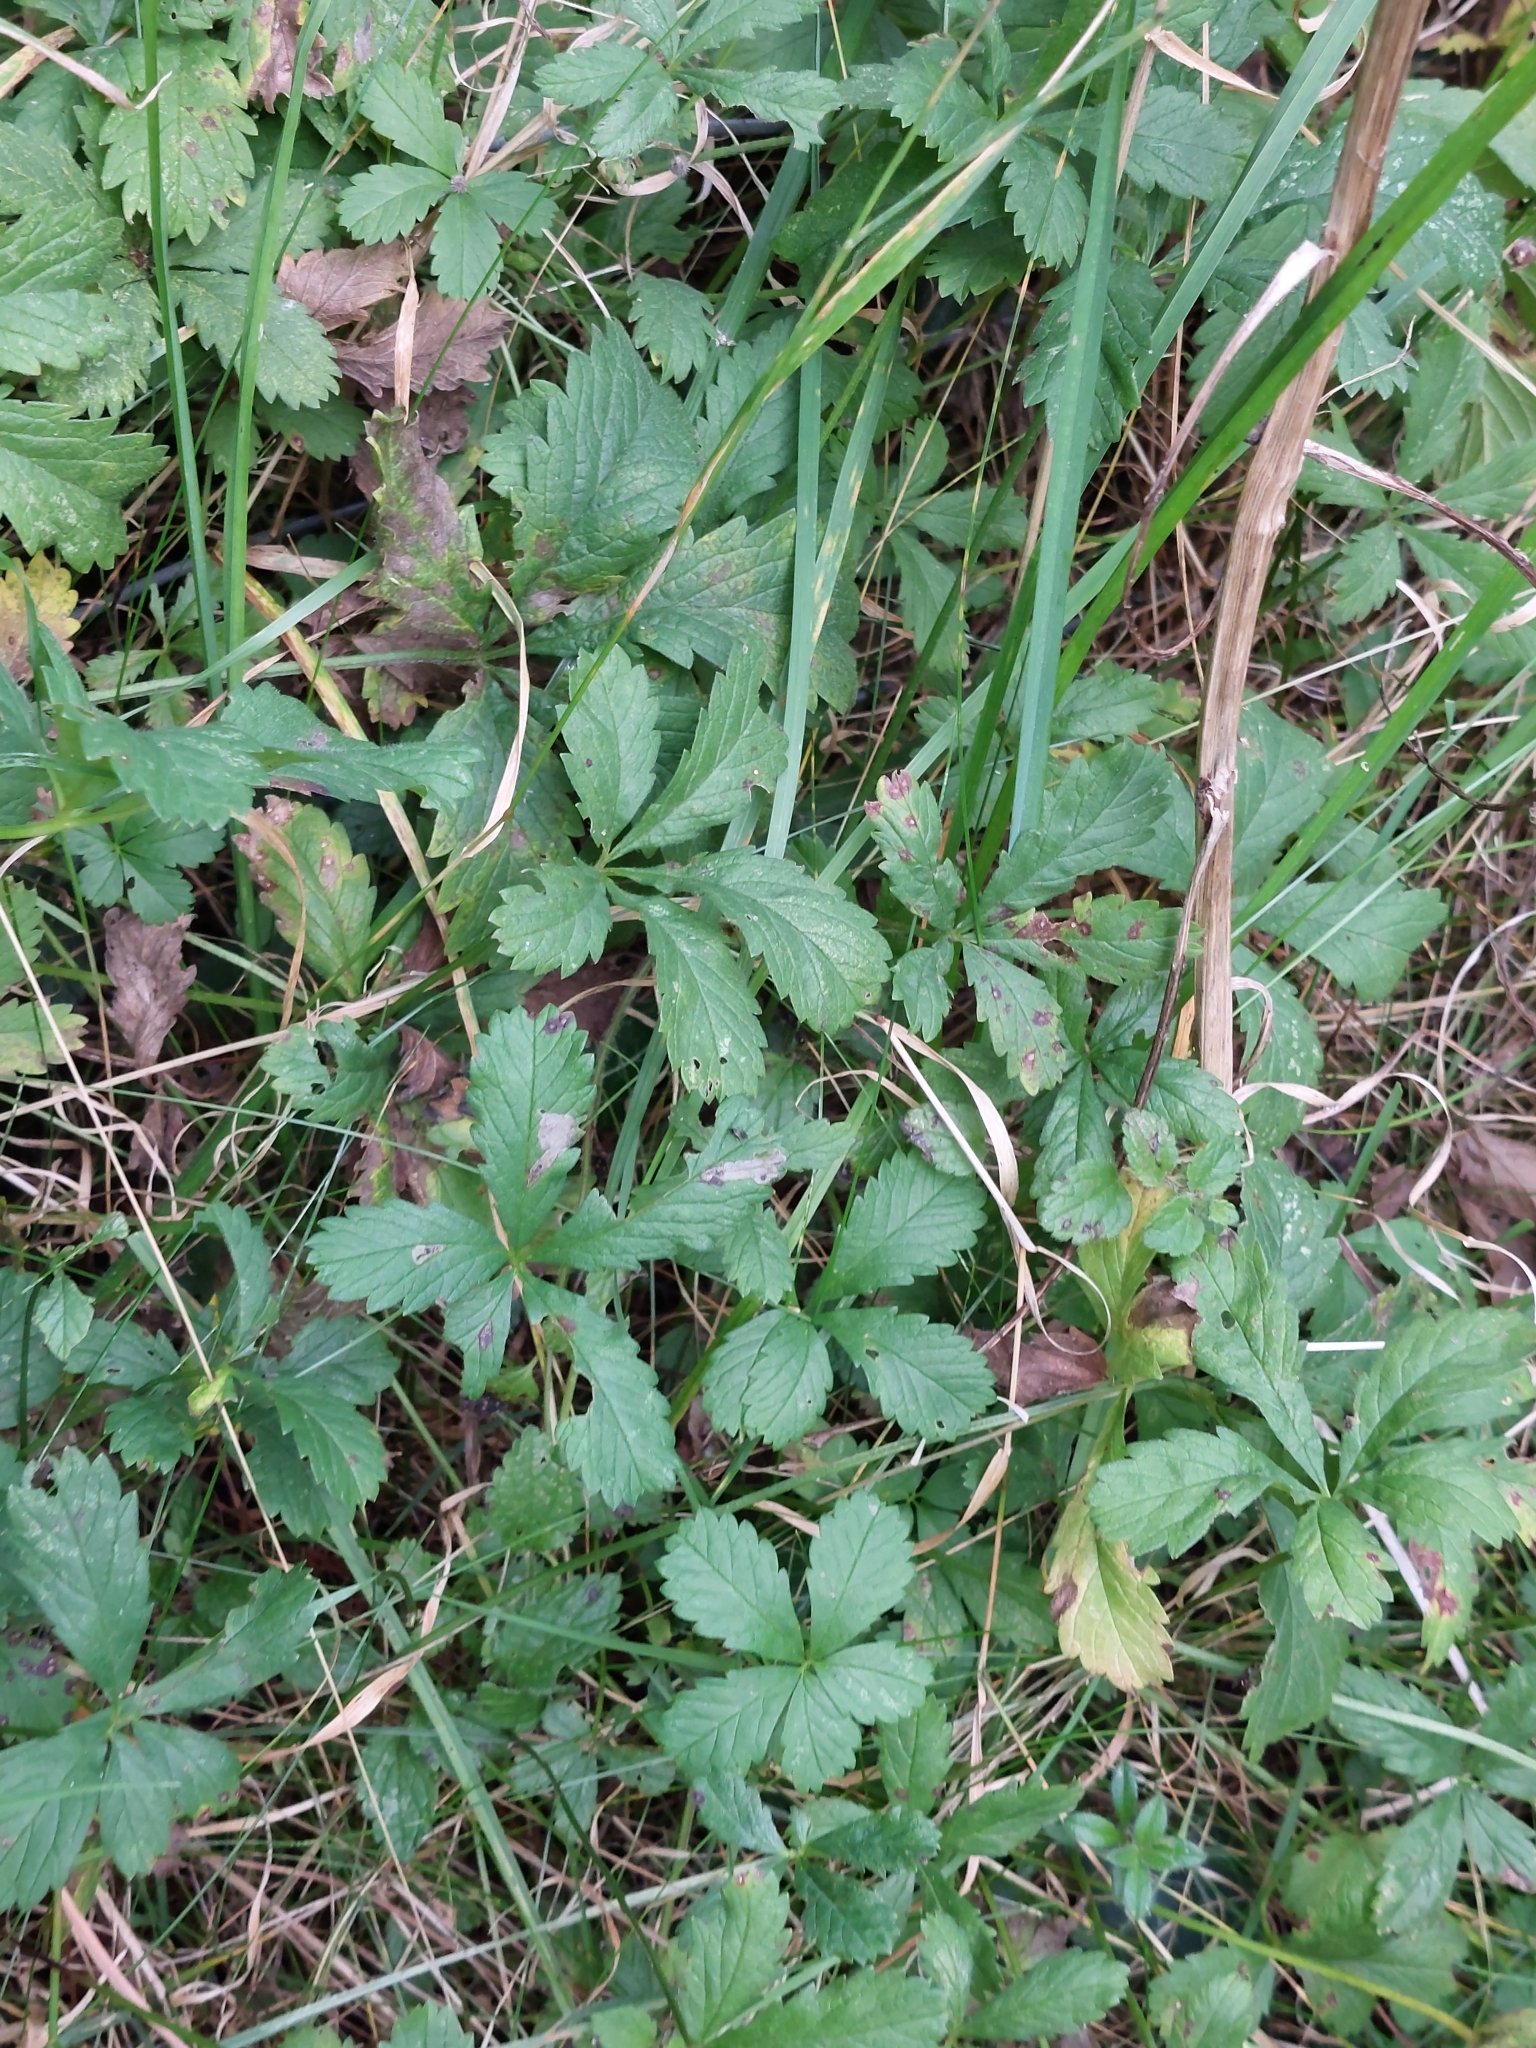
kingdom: Plantae
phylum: Tracheophyta
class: Magnoliopsida
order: Rosales
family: Rosaceae
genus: Potentilla
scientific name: Potentilla reptans
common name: Creeping cinquefoil
